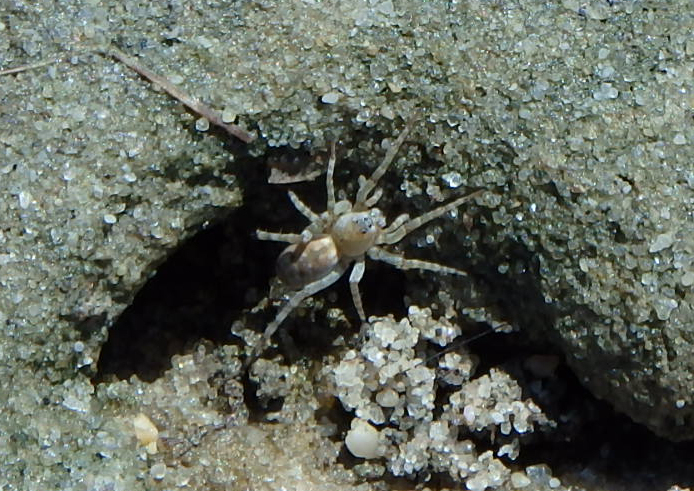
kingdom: Animalia
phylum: Arthropoda
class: Arachnida
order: Araneae
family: Lycosidae
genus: Arctosa
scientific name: Arctosa littoralis
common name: Wolf spiders
